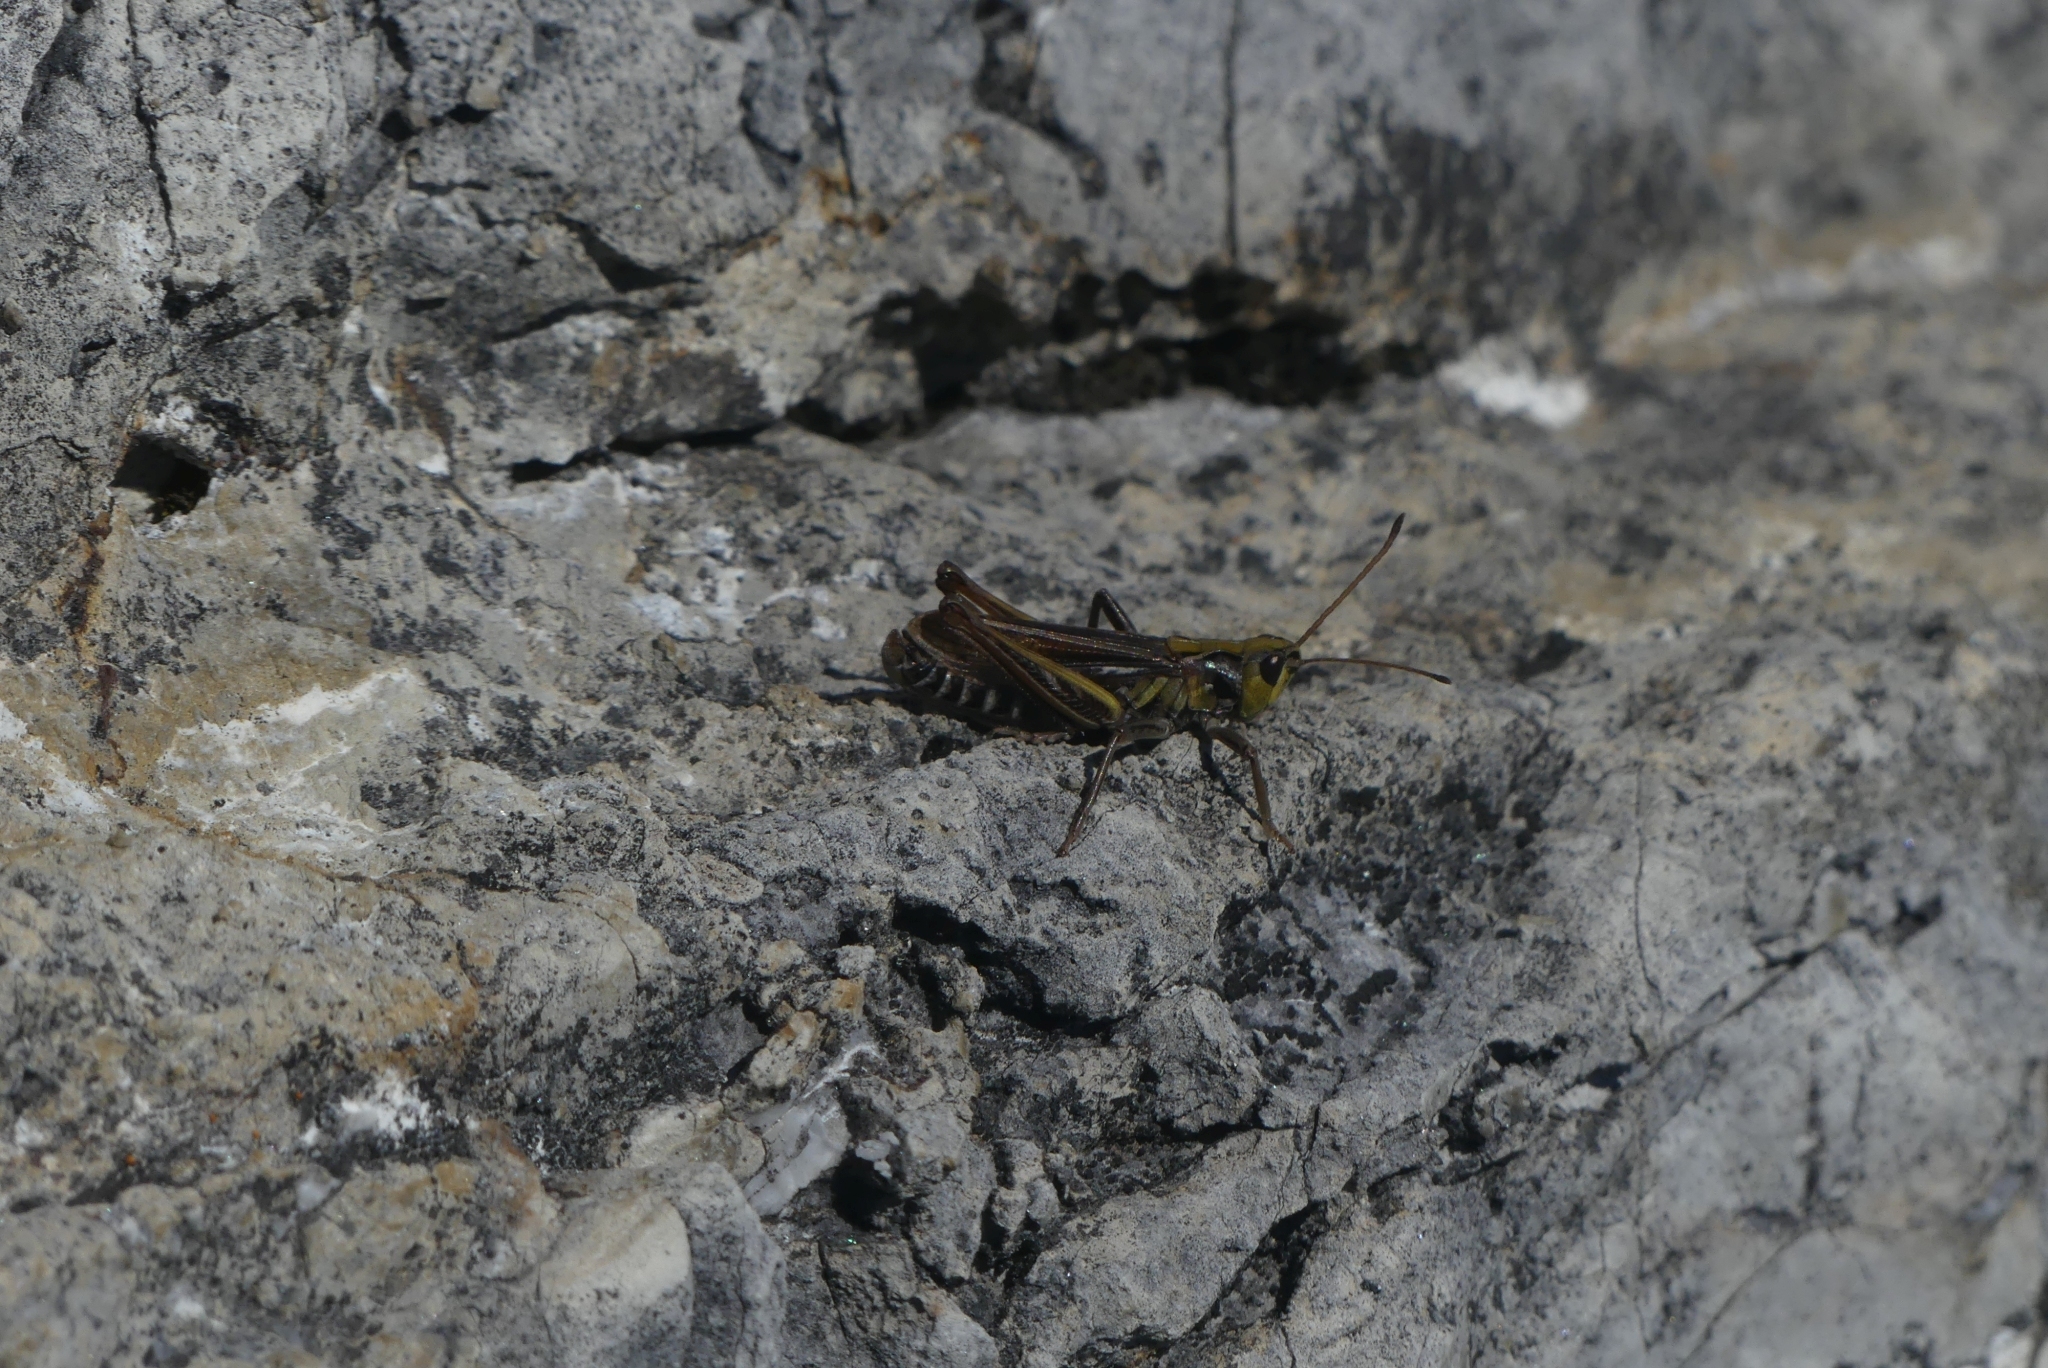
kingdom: Animalia
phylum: Arthropoda
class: Insecta
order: Orthoptera
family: Acrididae
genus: Aeropedellus
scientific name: Aeropedellus clavatus
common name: Clubhorned grasshopper
